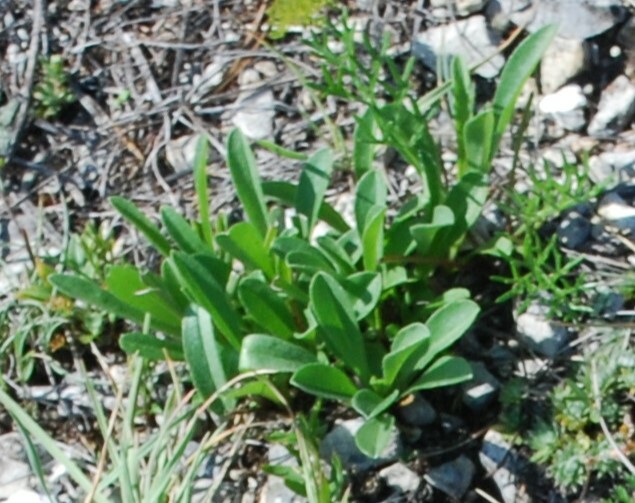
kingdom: Plantae
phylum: Tracheophyta
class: Magnoliopsida
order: Asterales
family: Asteraceae
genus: Aster
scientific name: Aster alpinus
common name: Alpine aster
